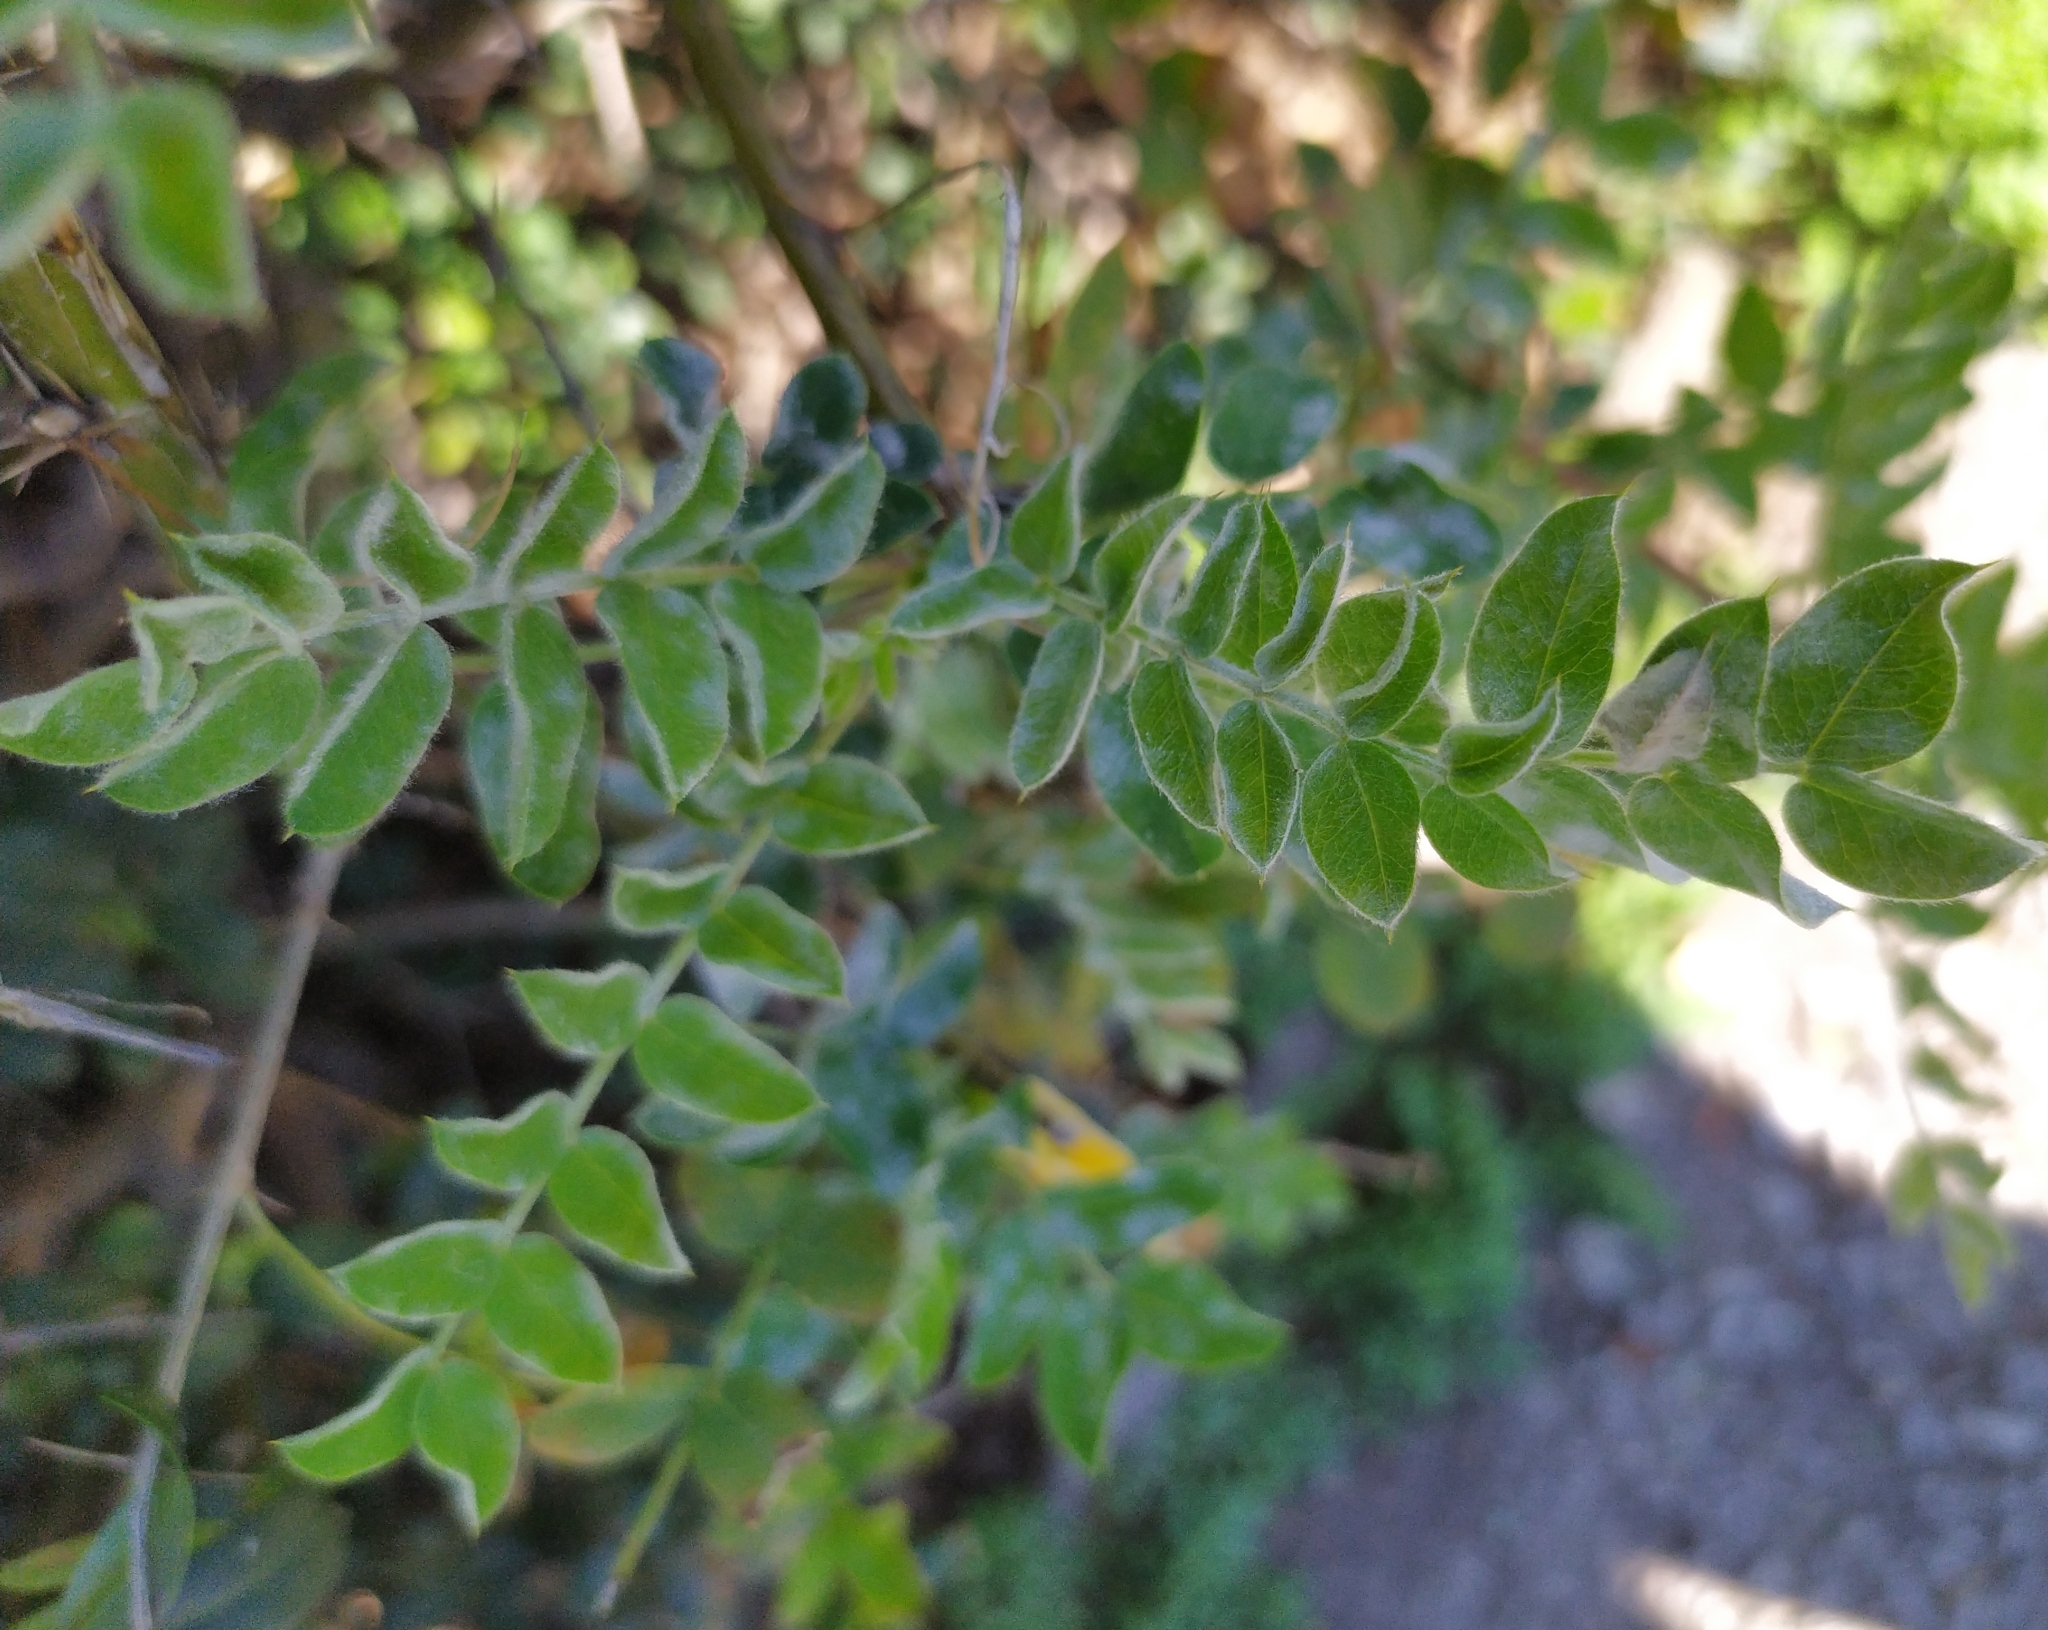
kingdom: Fungi
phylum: Ascomycota
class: Leotiomycetes
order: Helotiales
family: Erysiphaceae
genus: Erysiphe
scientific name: Erysiphe robiniae
